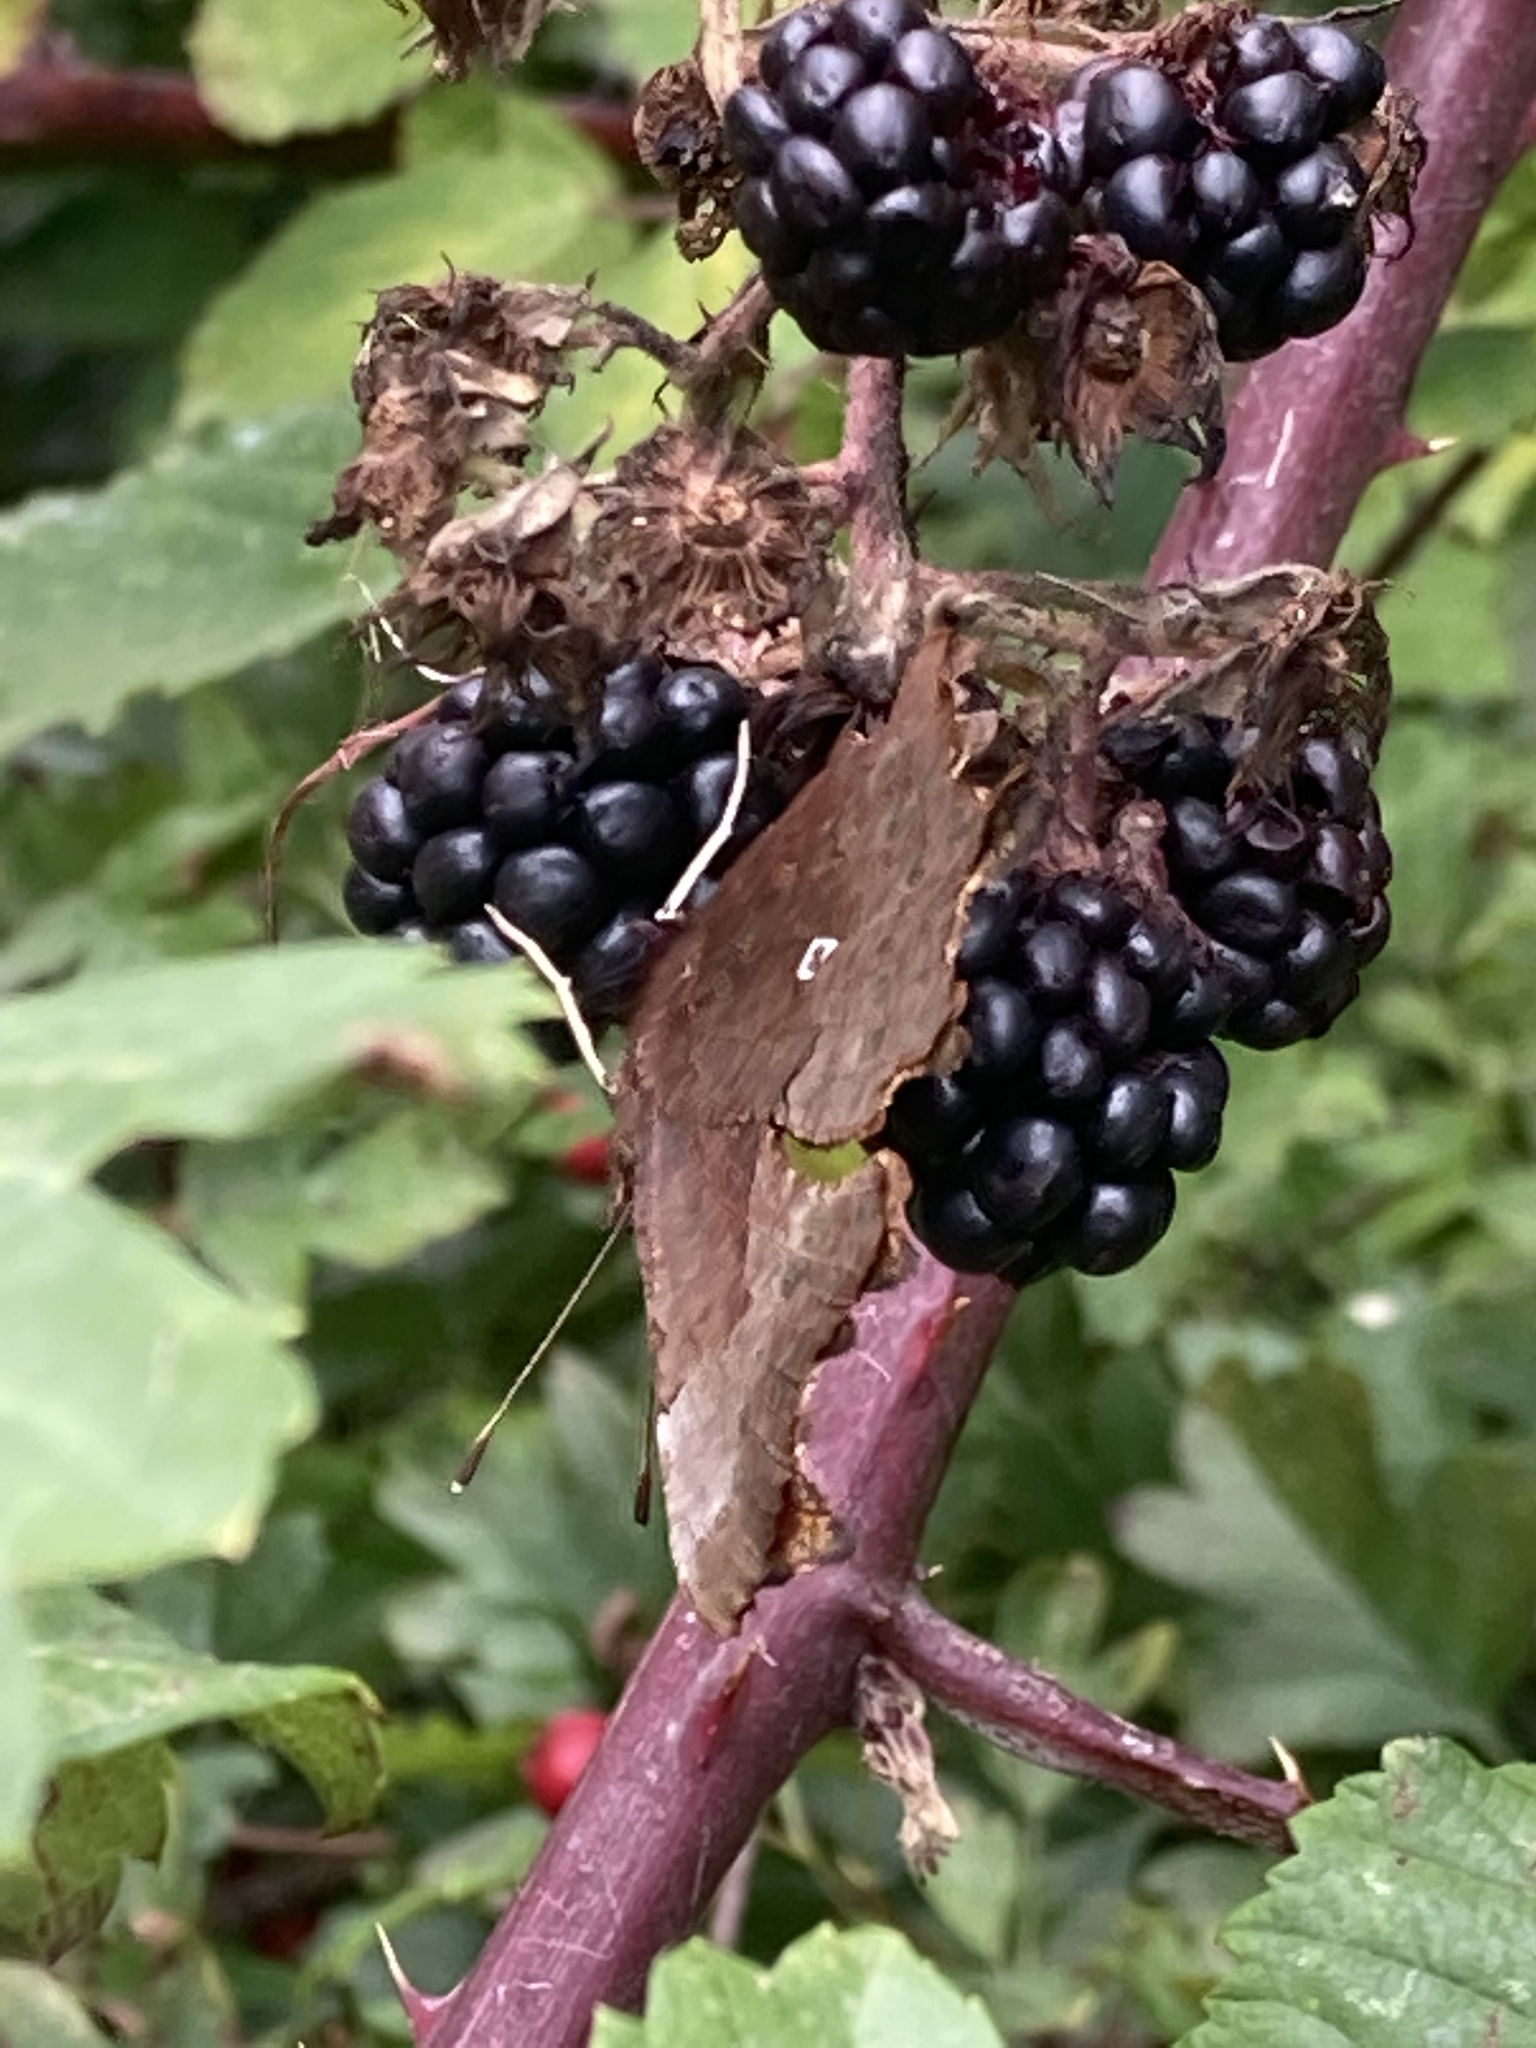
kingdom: Animalia
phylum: Arthropoda
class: Insecta
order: Lepidoptera
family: Nymphalidae
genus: Polygonia
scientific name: Polygonia c-album
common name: Comma
